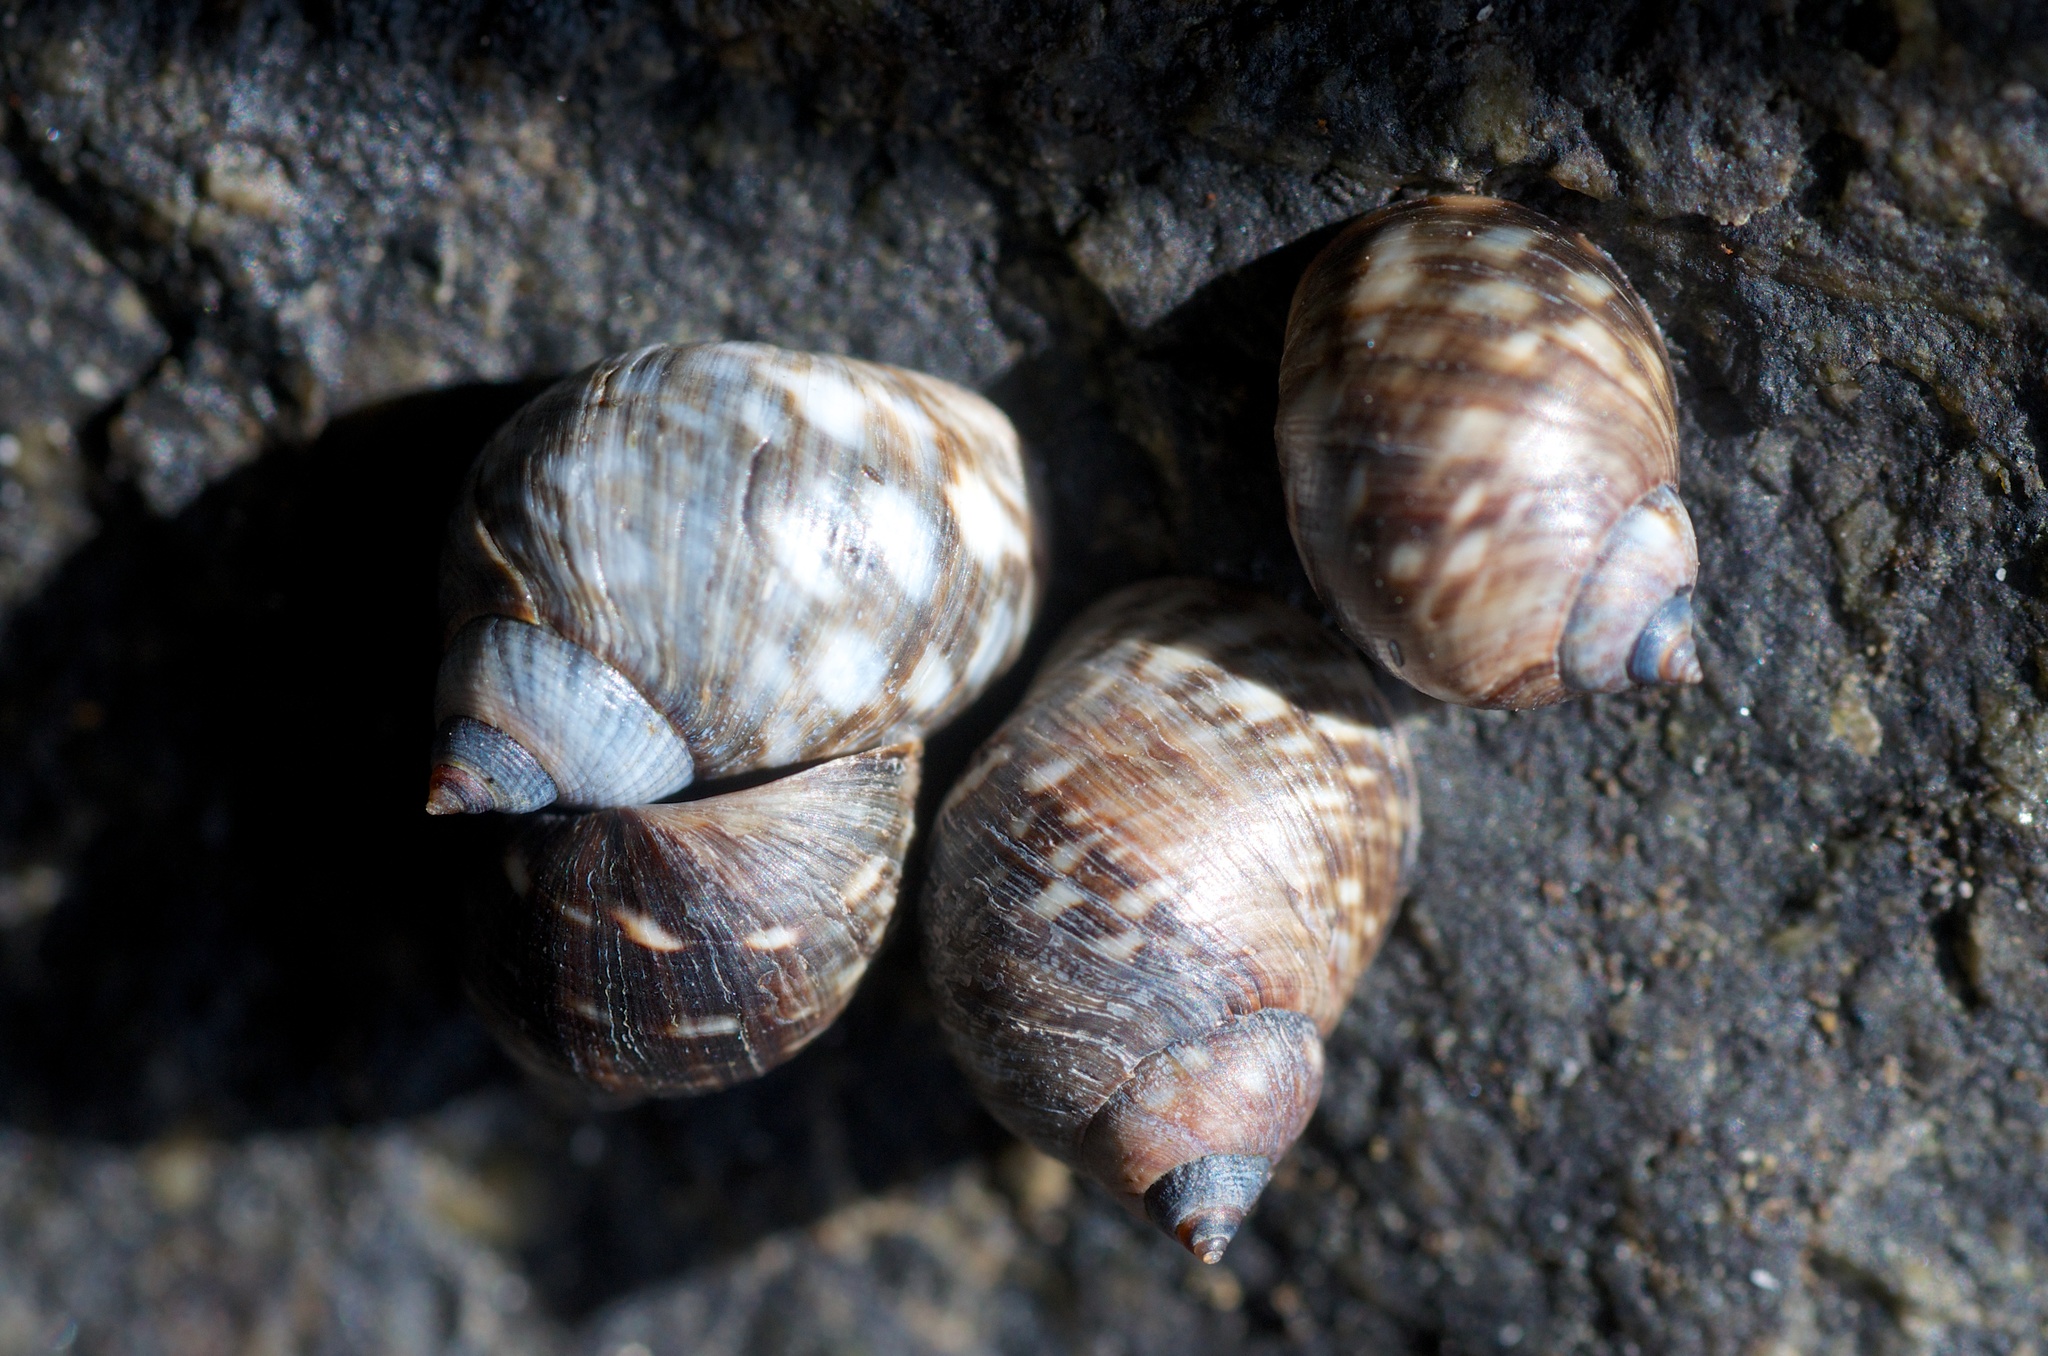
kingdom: Animalia
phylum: Mollusca
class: Gastropoda
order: Littorinimorpha
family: Littorinidae
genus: Littorina
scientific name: Littorina scutulata
